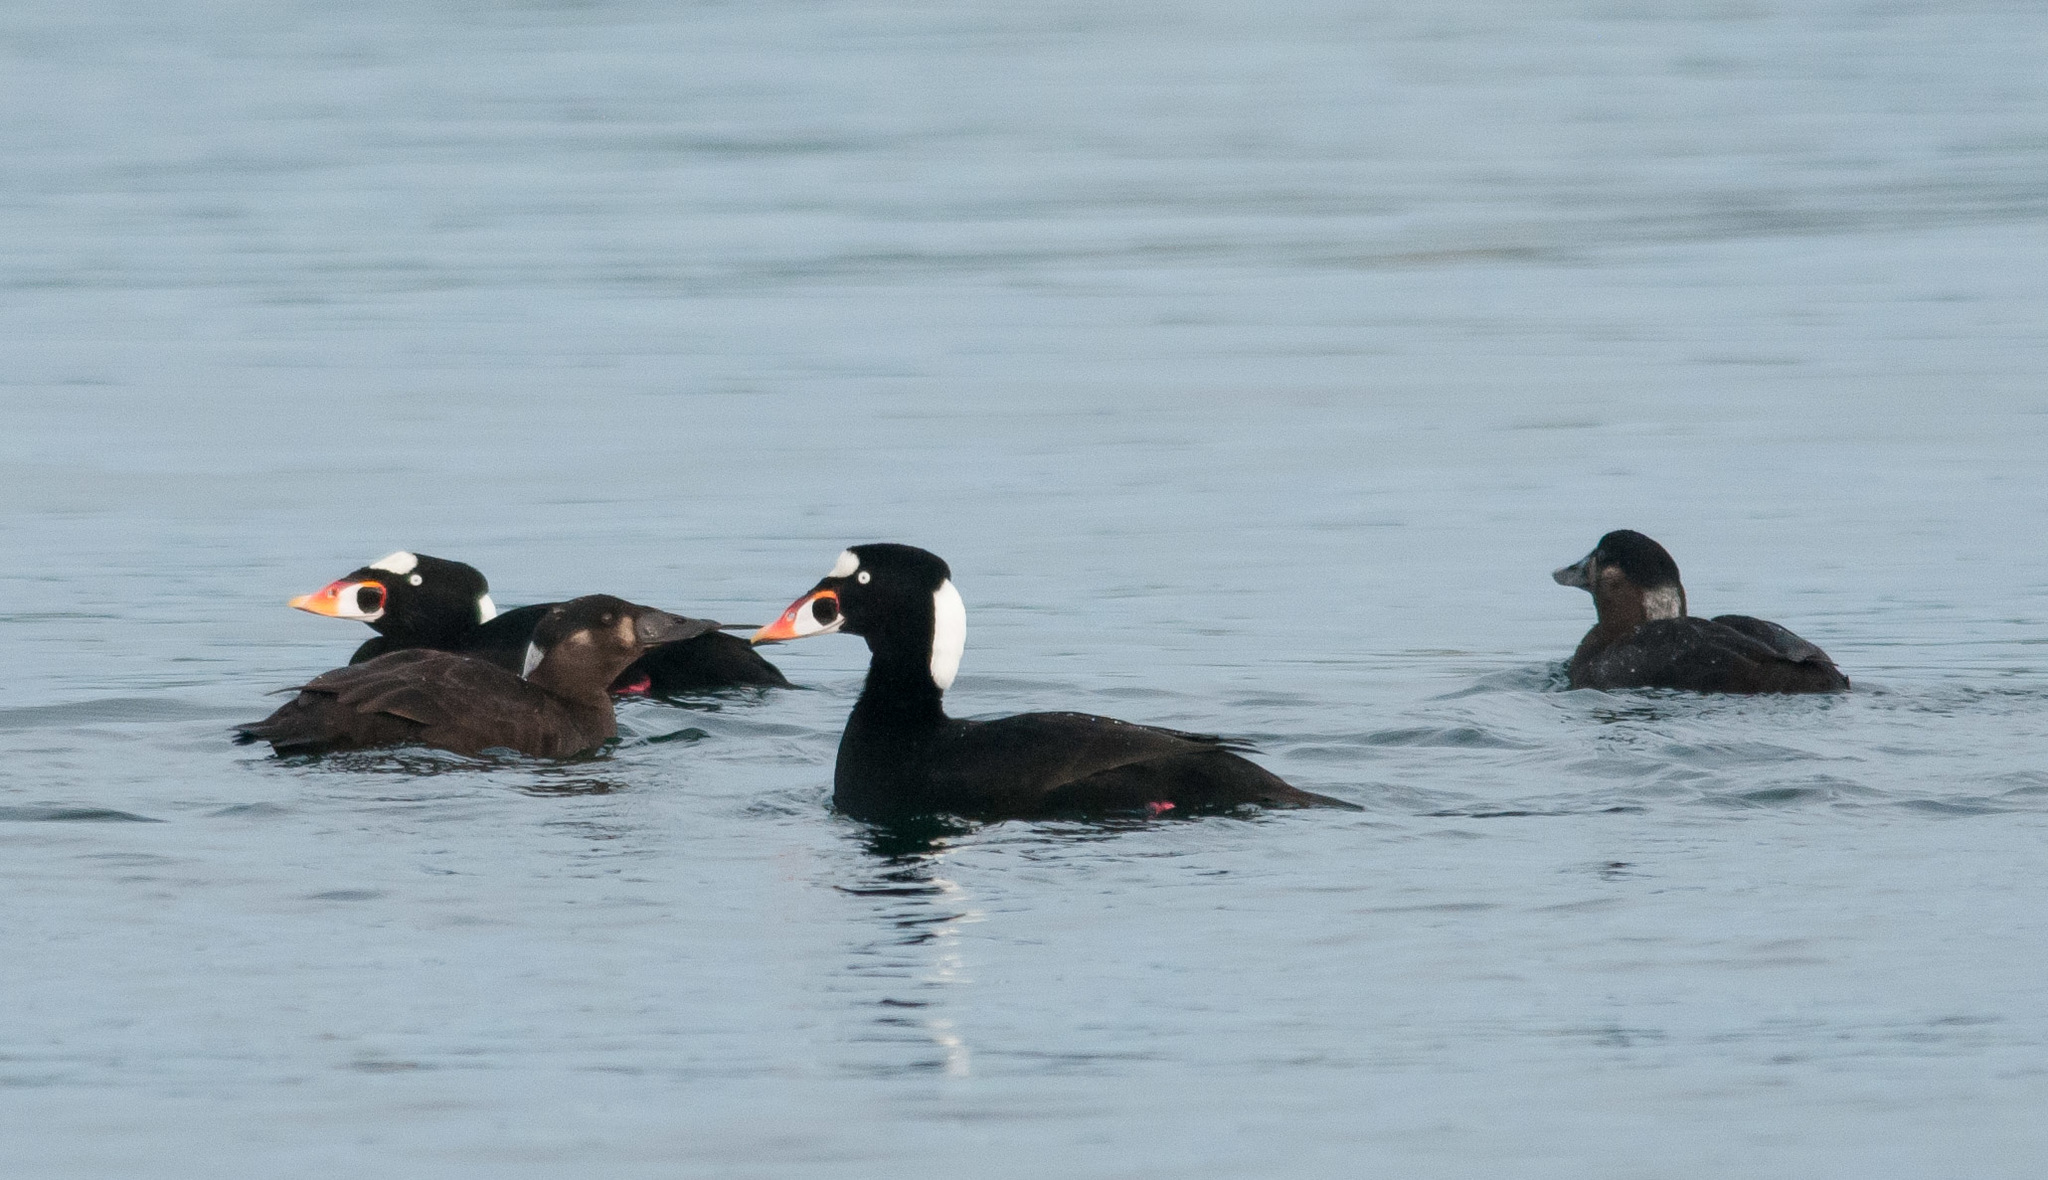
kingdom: Animalia
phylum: Chordata
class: Aves
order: Anseriformes
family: Anatidae
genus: Melanitta
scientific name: Melanitta perspicillata
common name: Surf scoter
